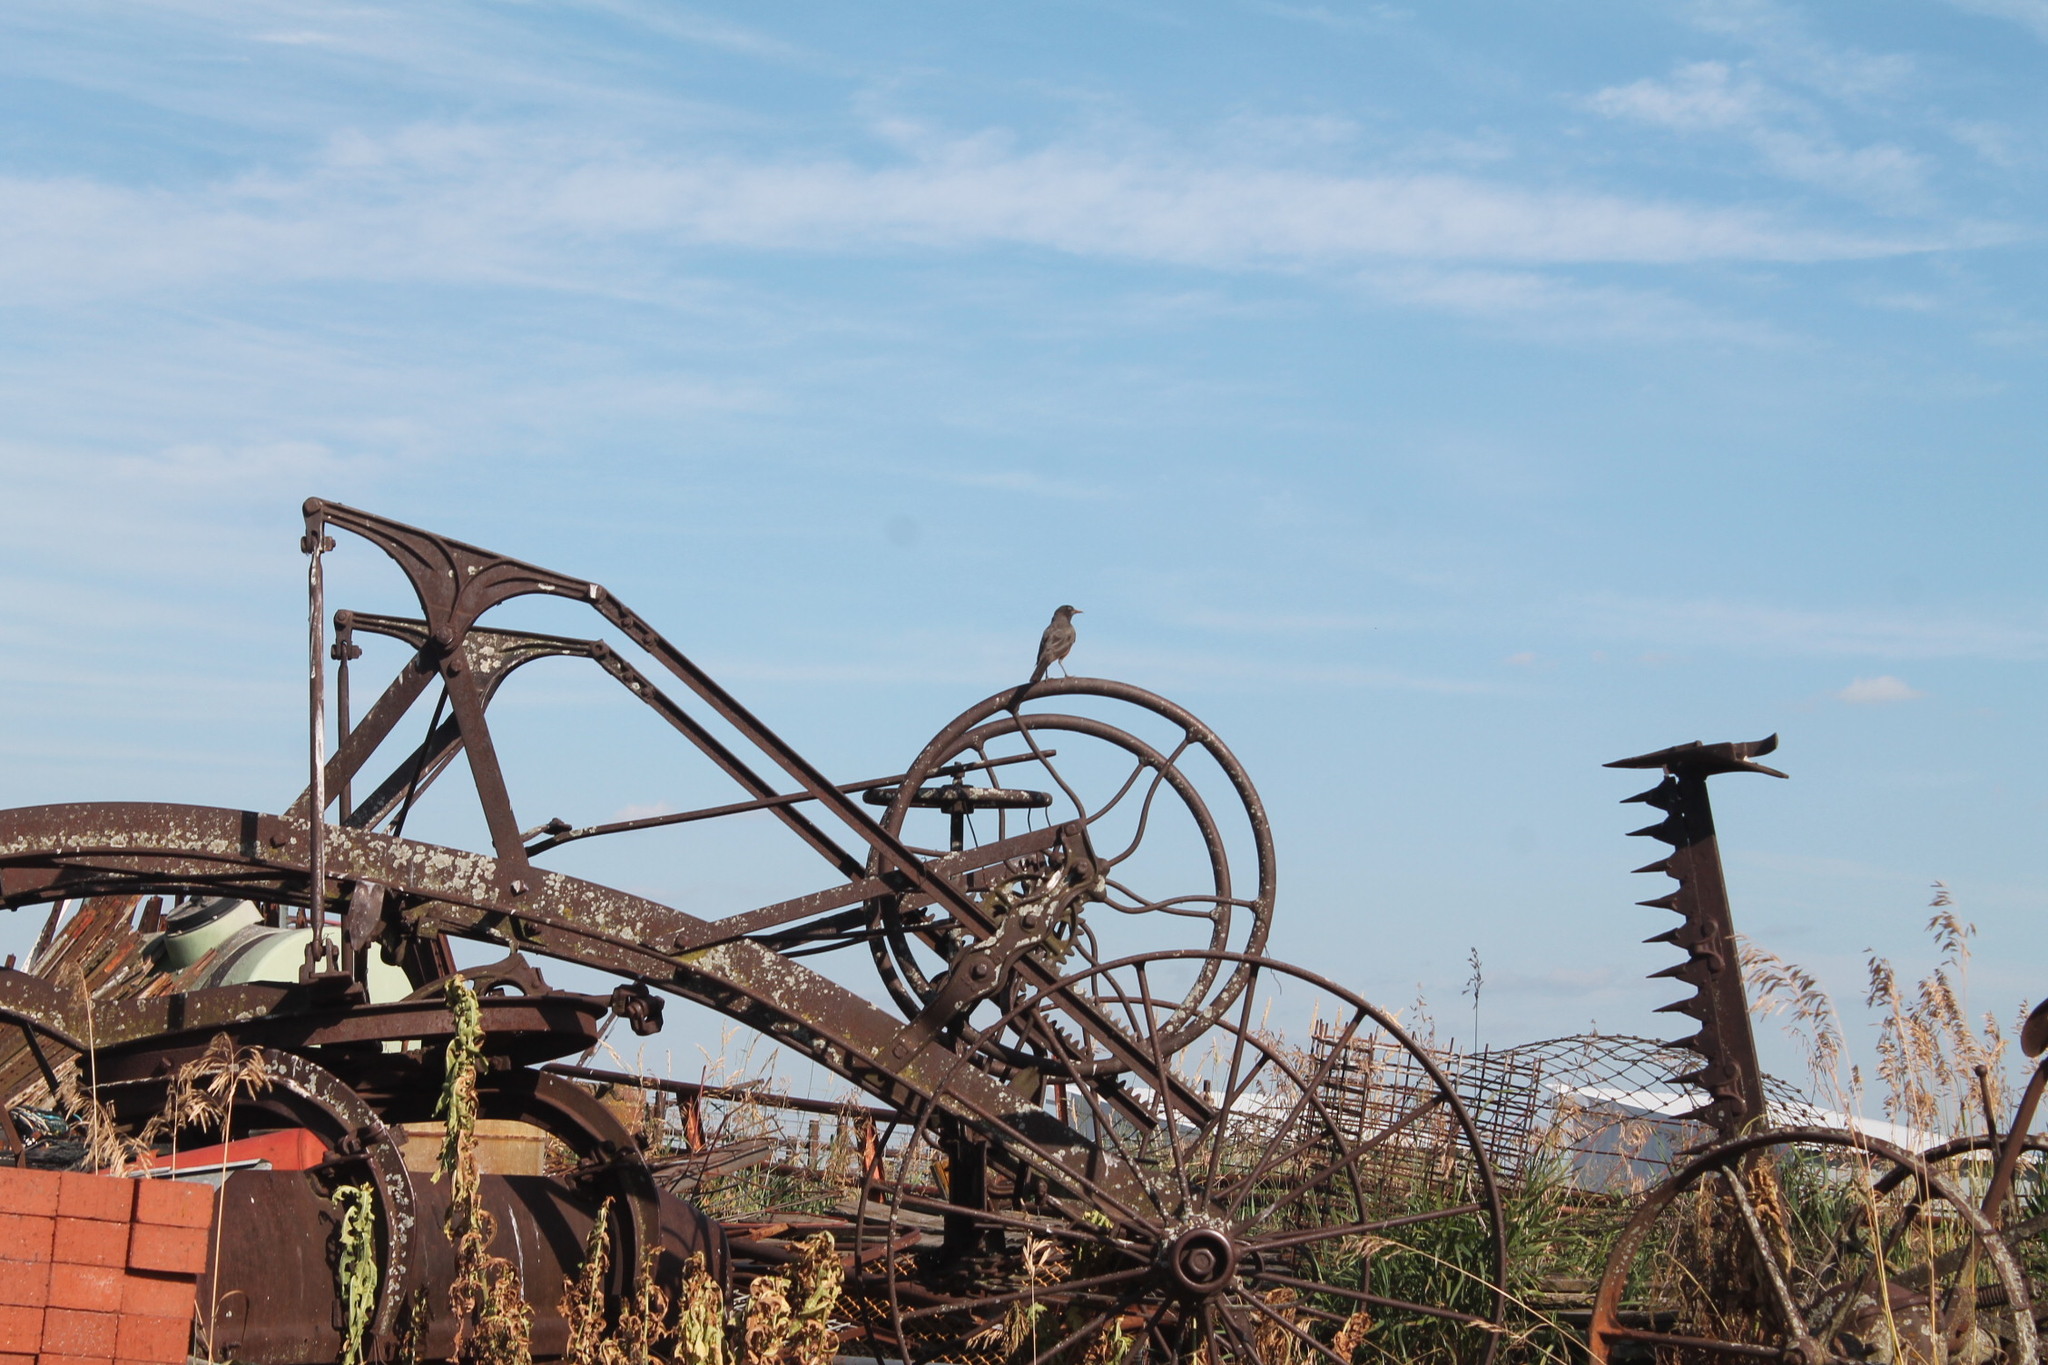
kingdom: Animalia
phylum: Chordata
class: Aves
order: Passeriformes
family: Turdidae
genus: Turdus
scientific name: Turdus migratorius
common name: American robin
